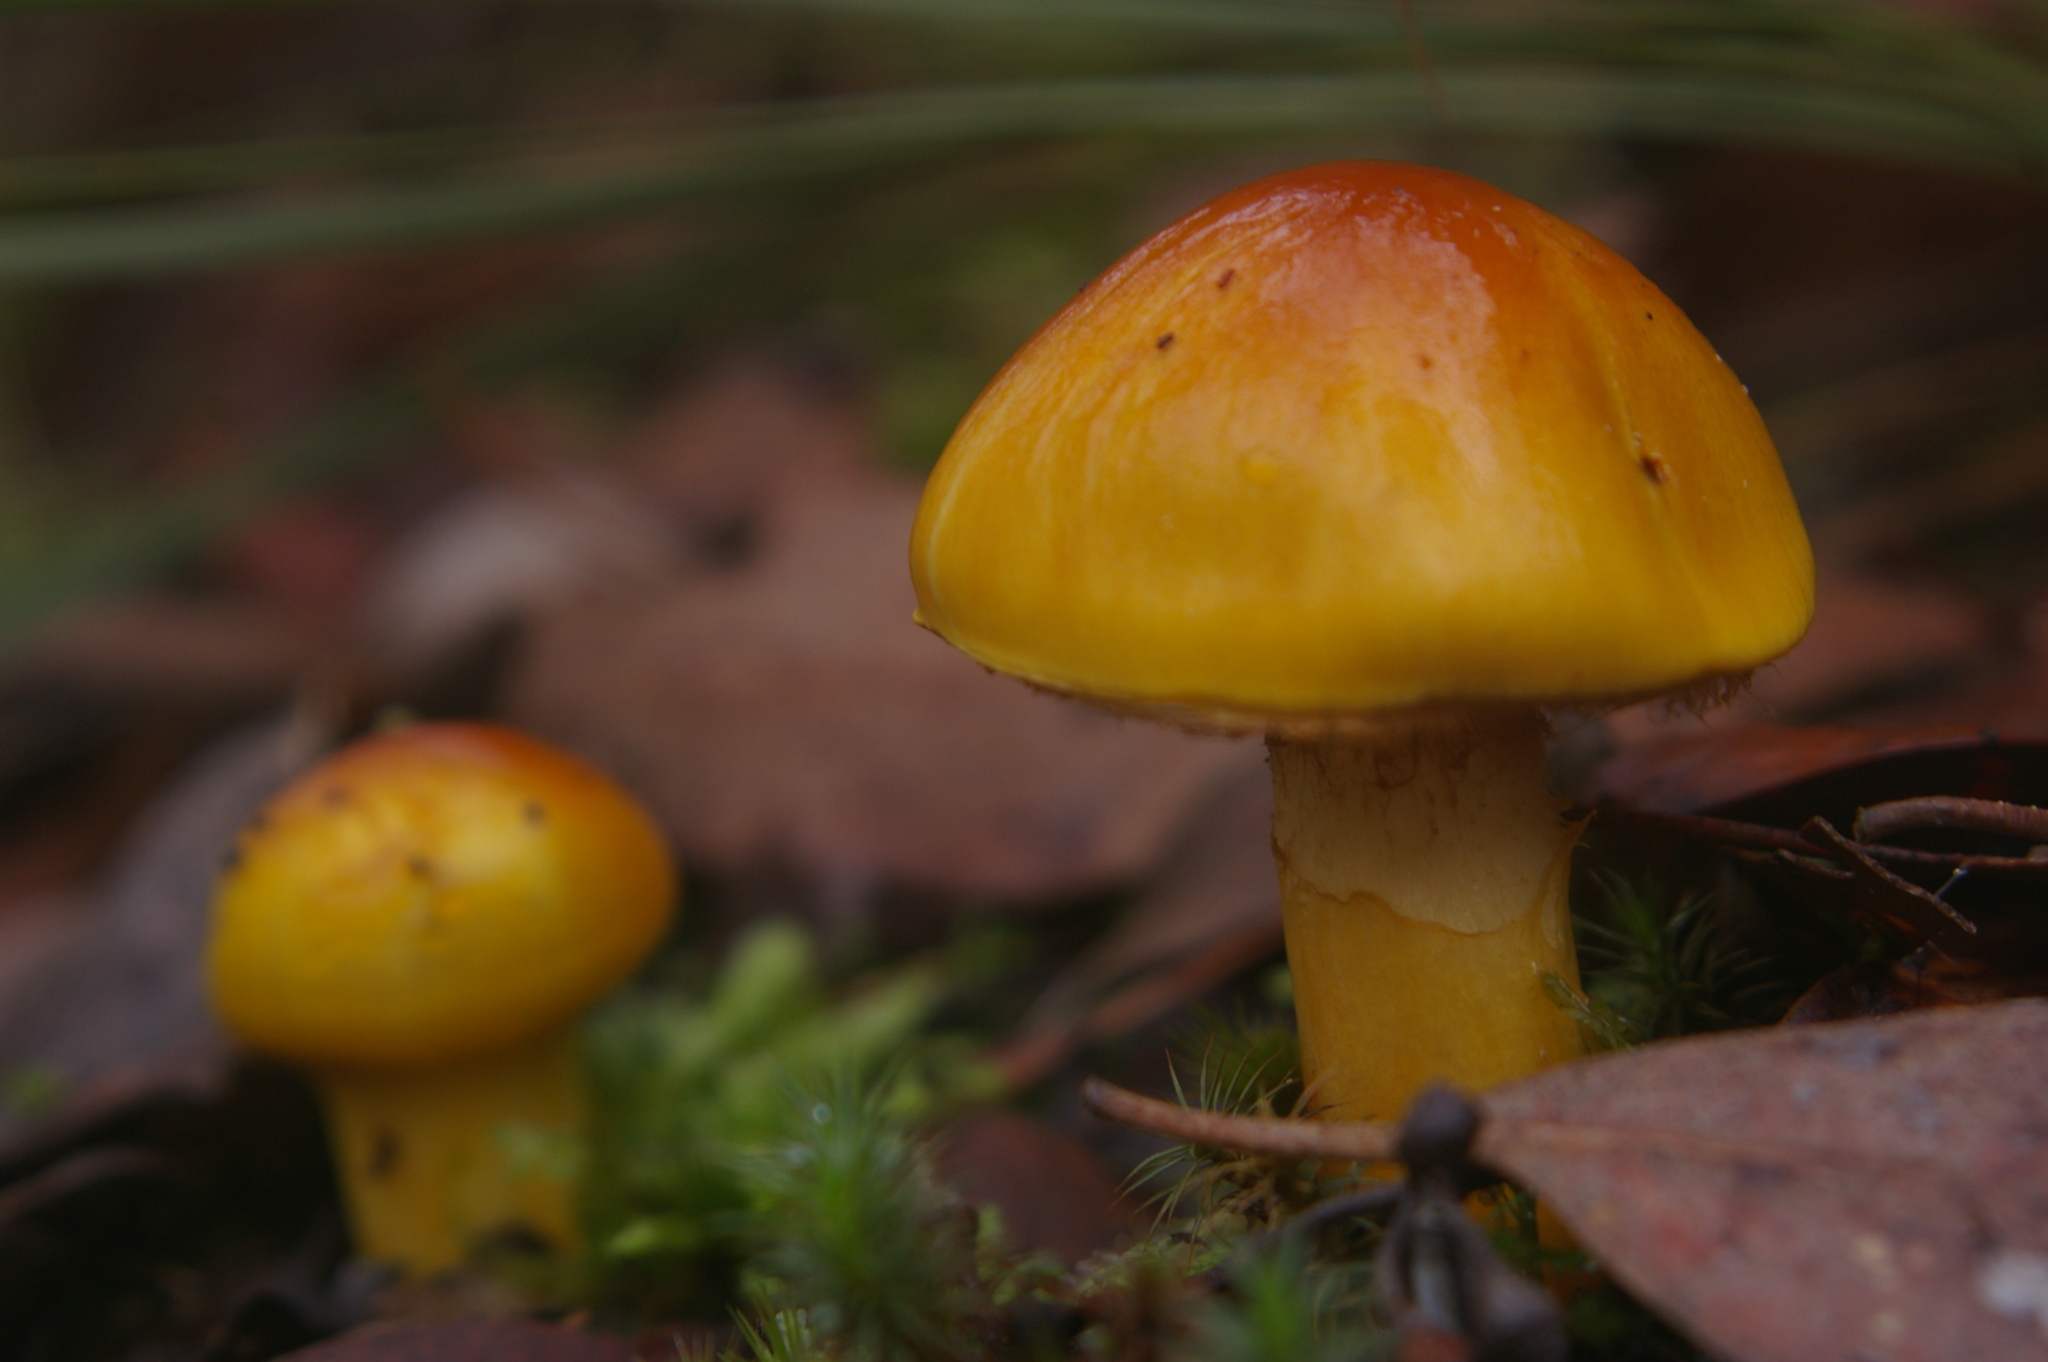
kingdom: Fungi
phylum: Basidiomycota
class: Agaricomycetes
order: Agaricales
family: Cortinariaceae
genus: Cortinarius
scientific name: Cortinarius sinapicolor
